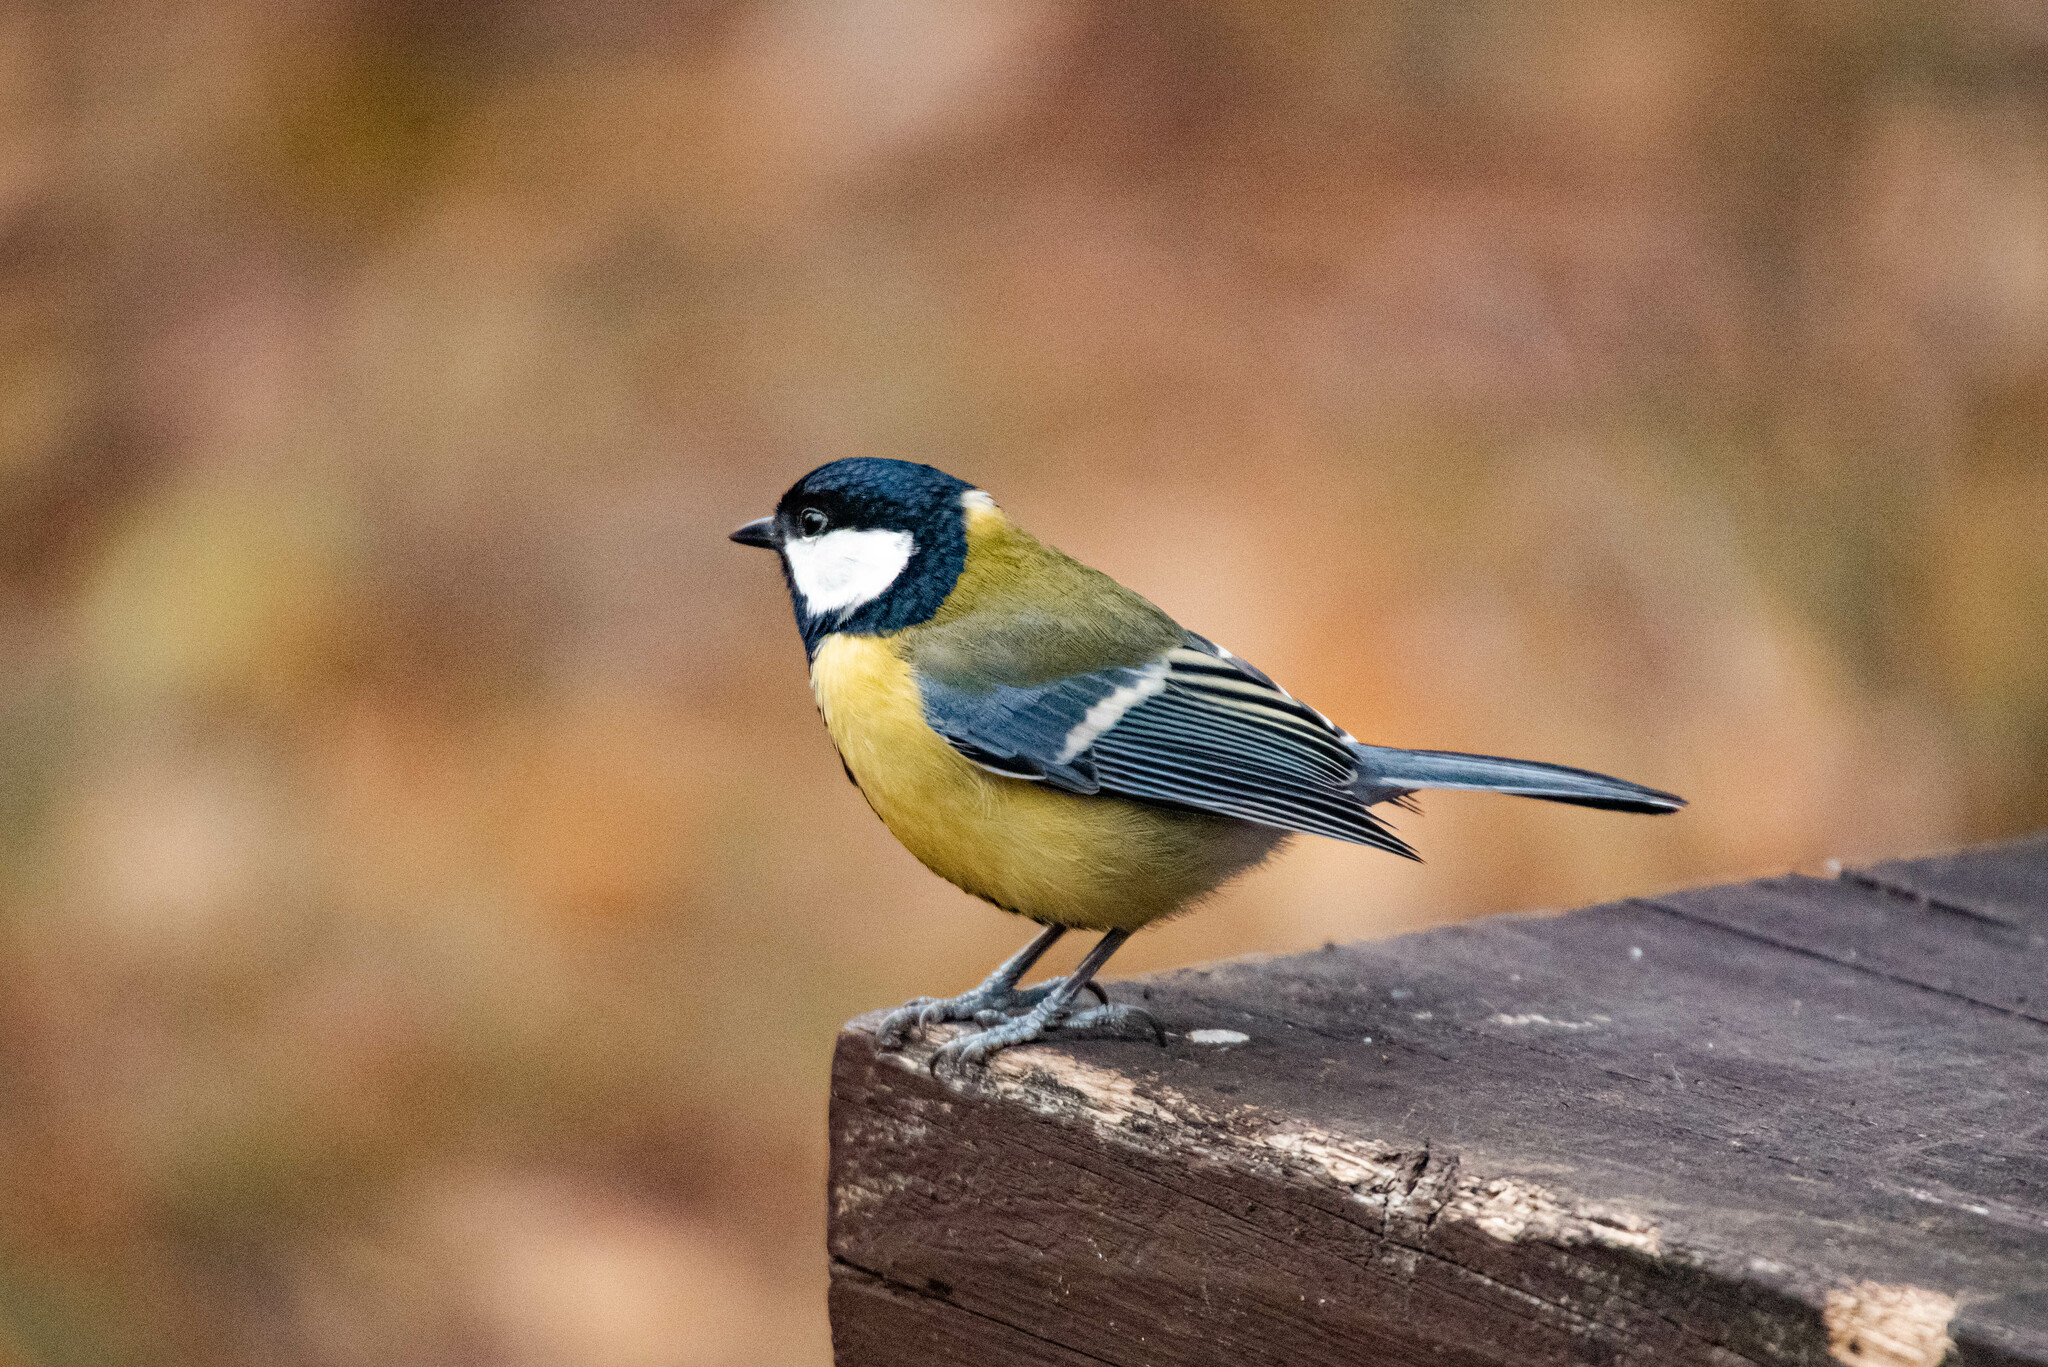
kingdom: Animalia
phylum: Chordata
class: Aves
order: Passeriformes
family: Paridae
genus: Parus
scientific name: Parus major
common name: Great tit
